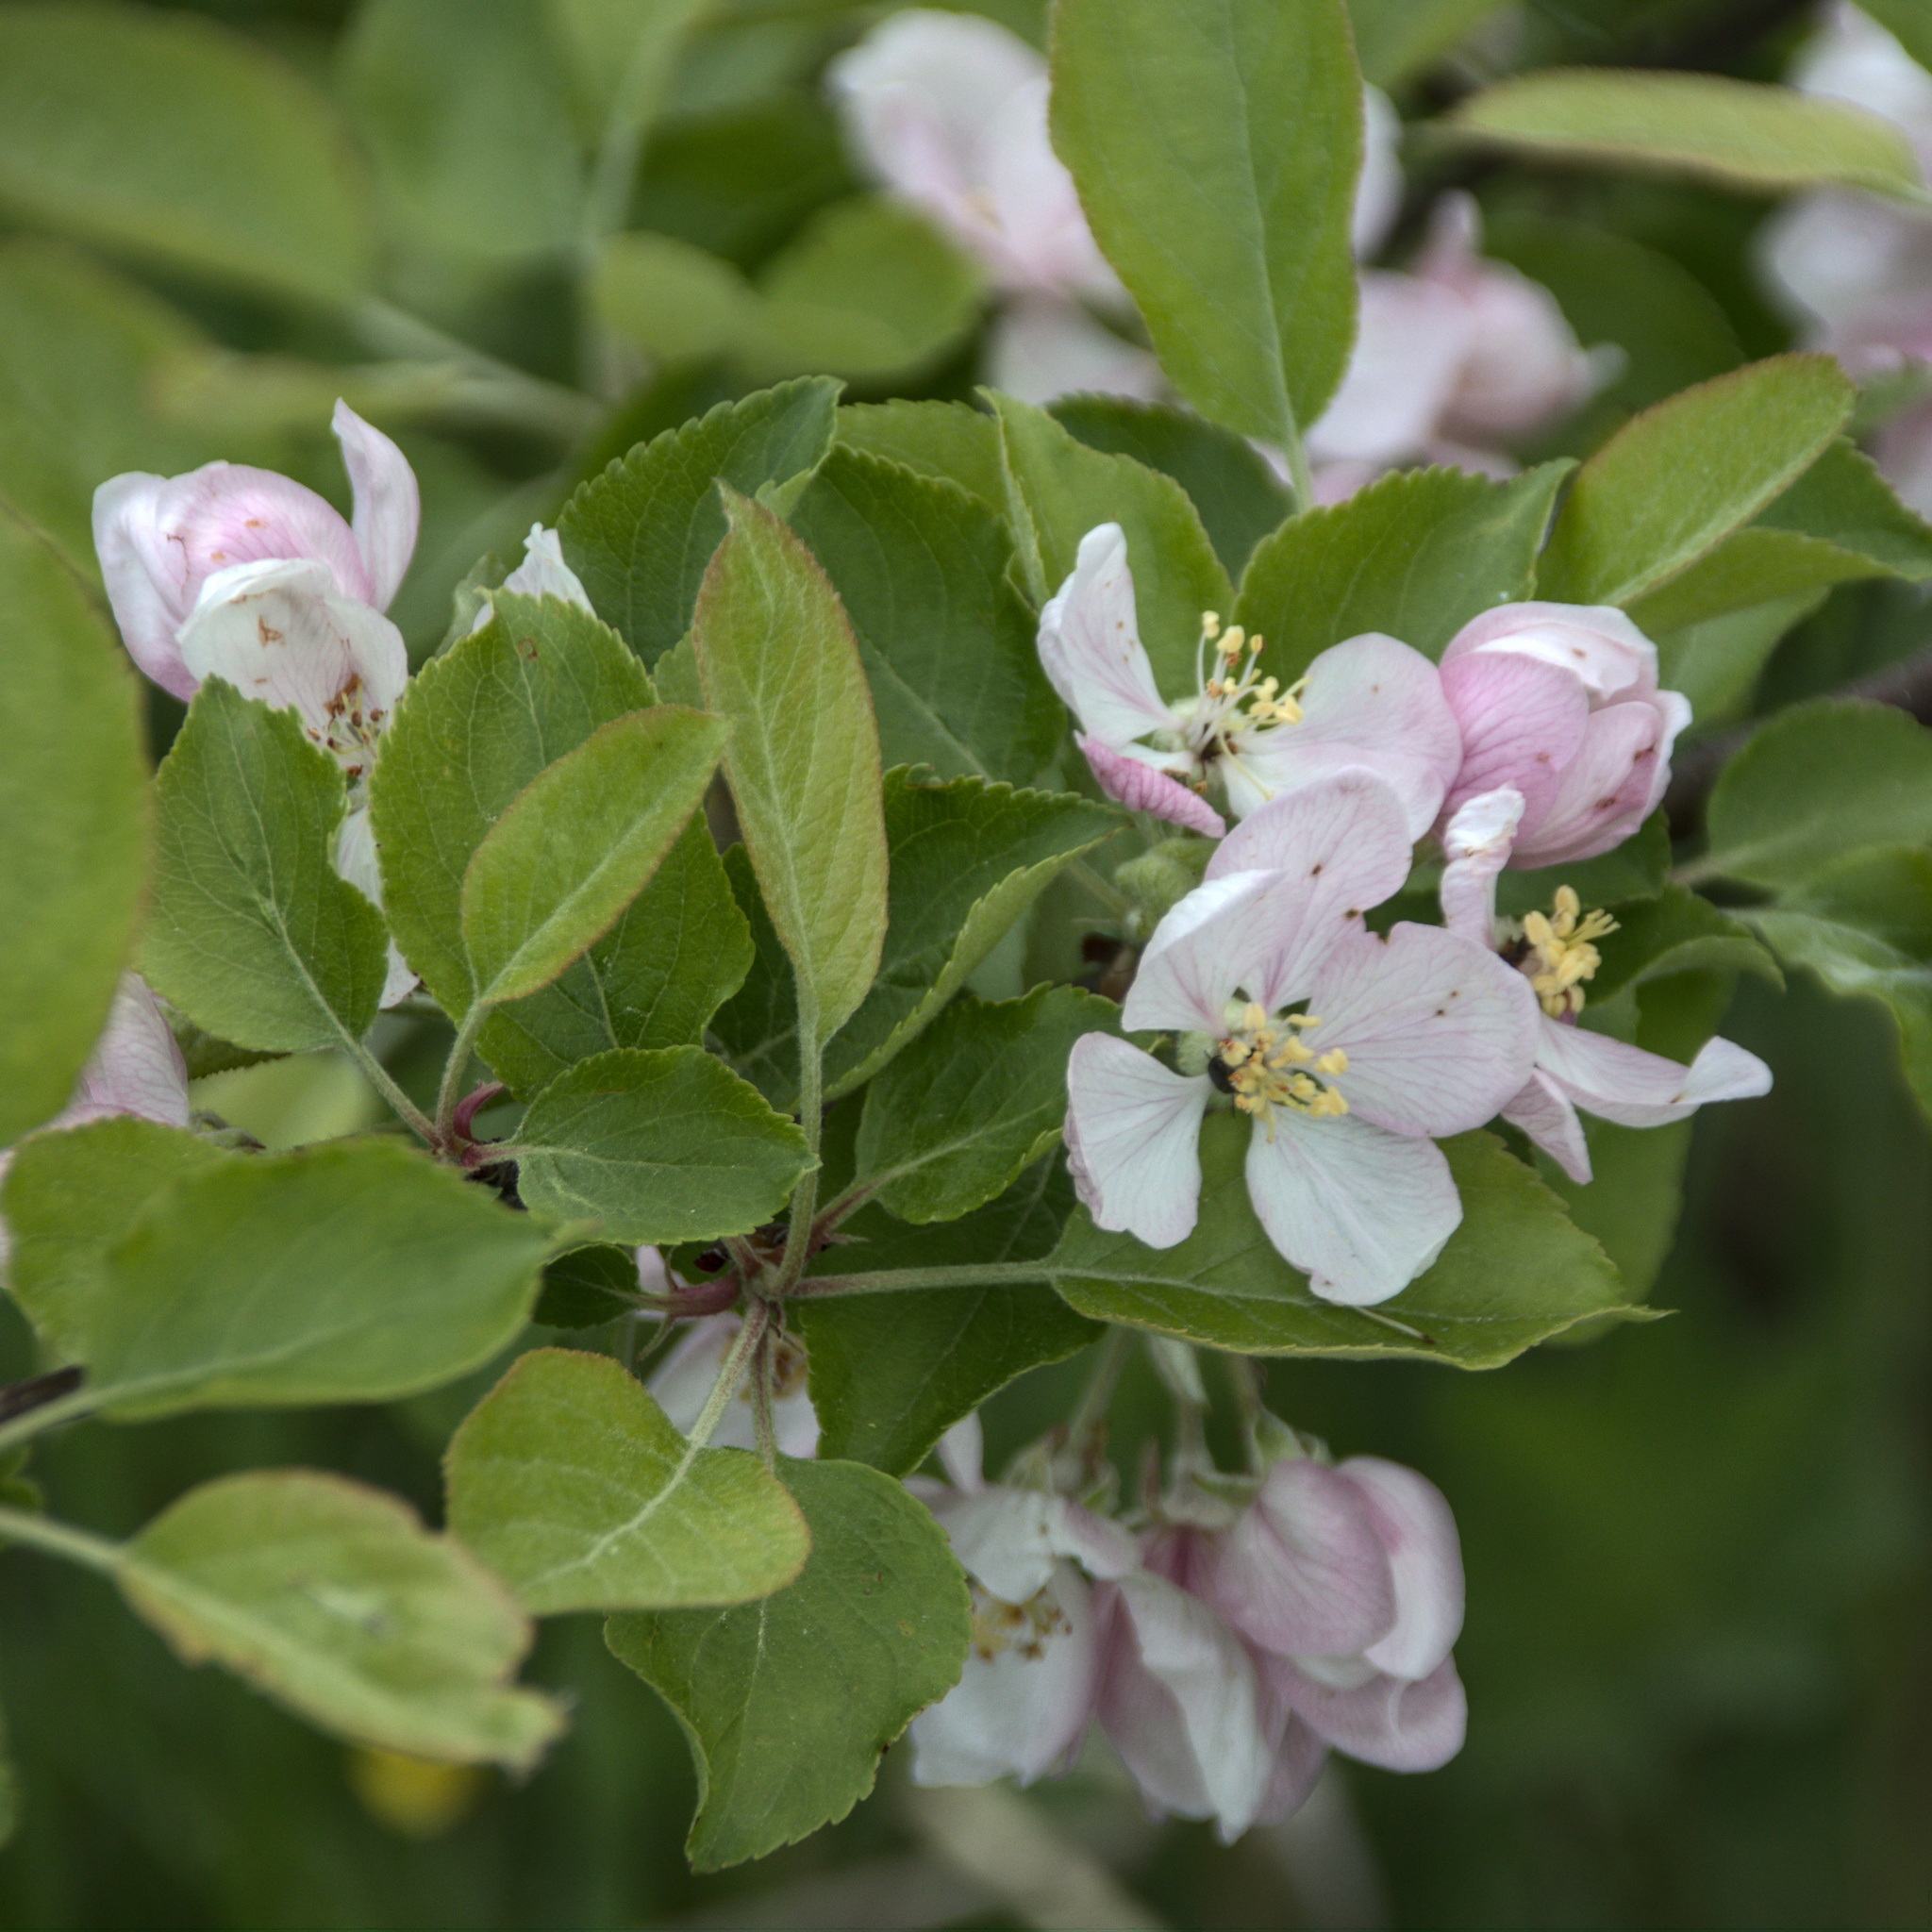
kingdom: Plantae
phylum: Tracheophyta
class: Magnoliopsida
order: Rosales
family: Rosaceae
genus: Malus
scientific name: Malus domestica
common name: Apple
